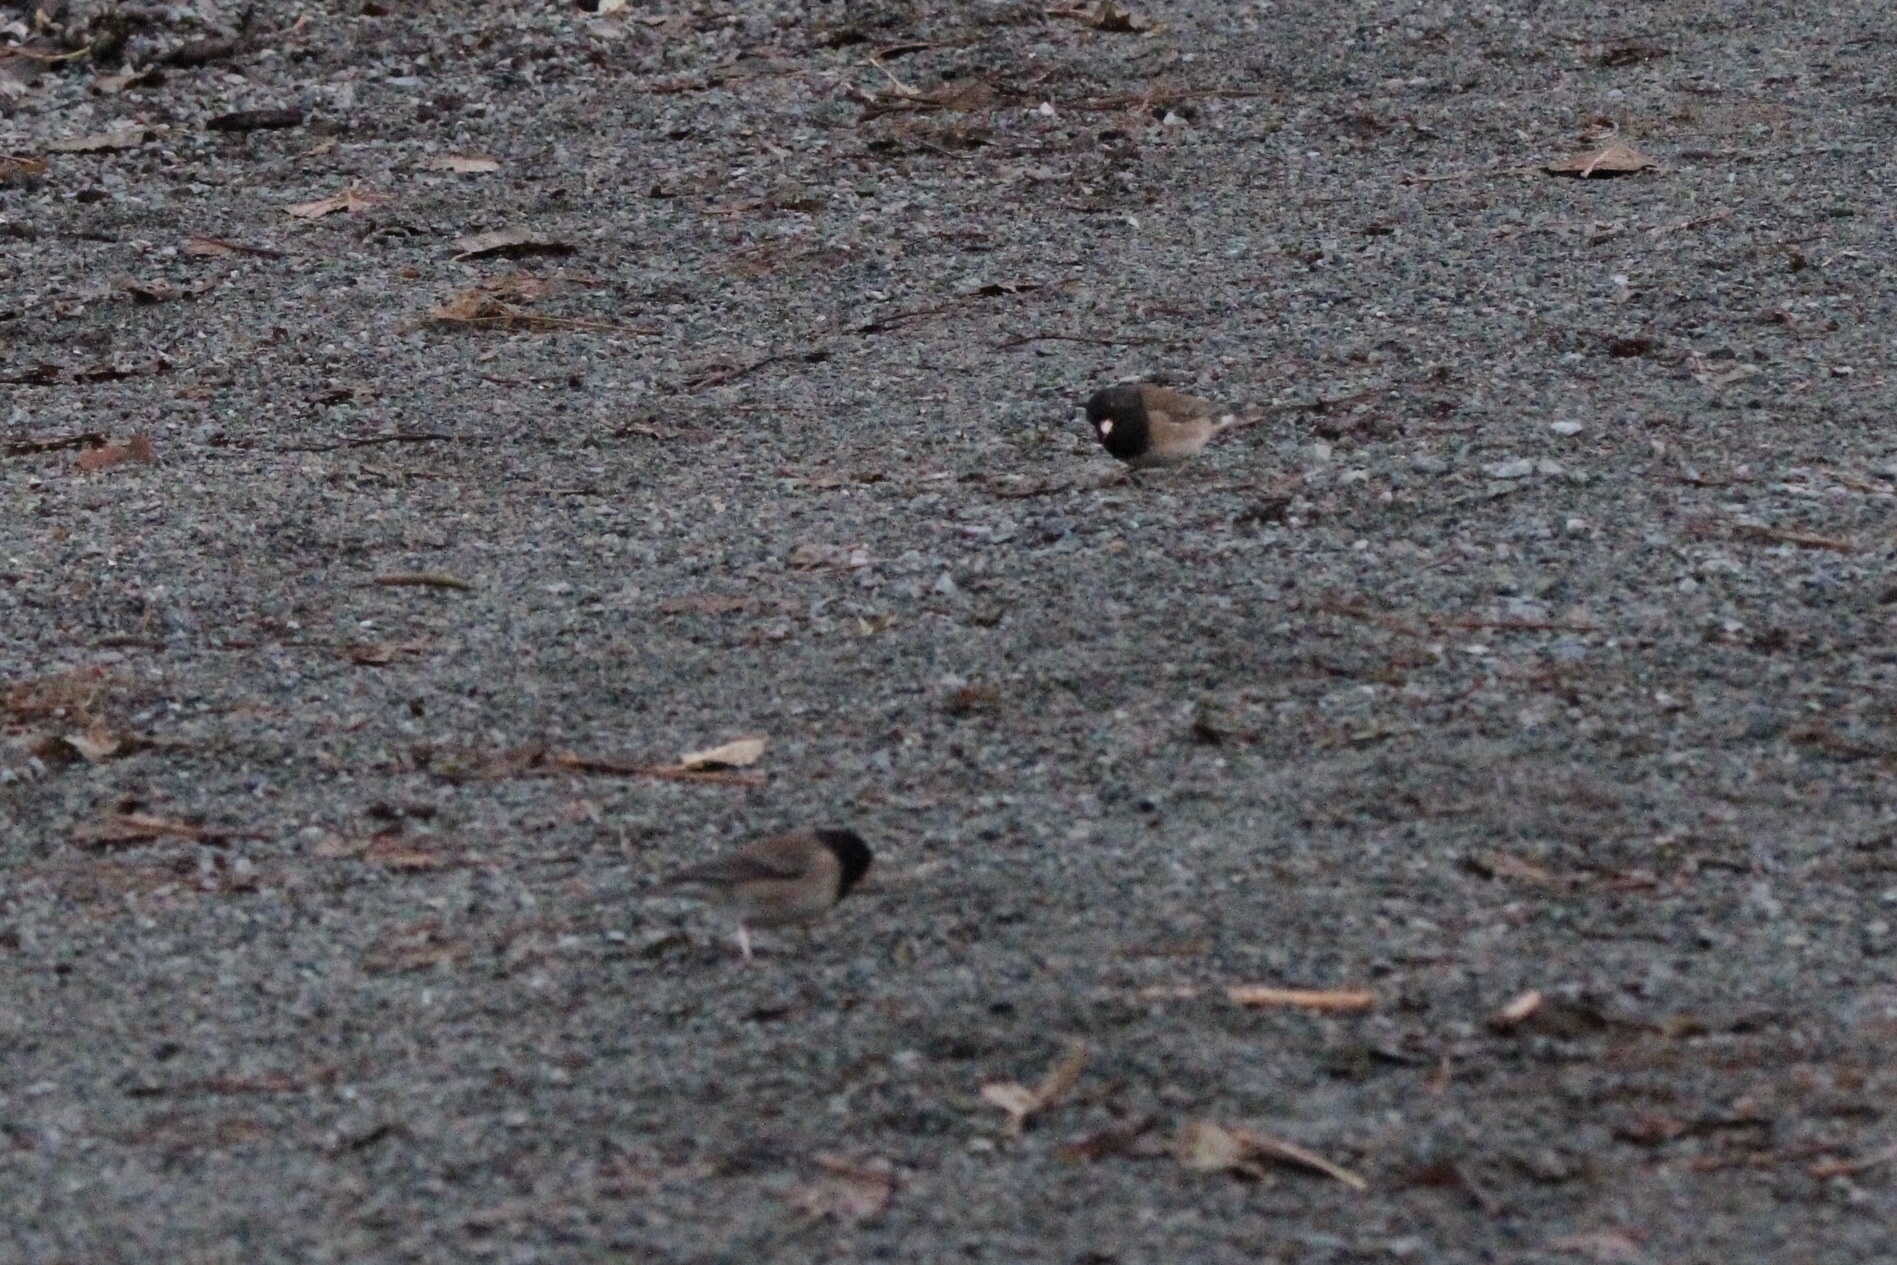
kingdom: Animalia
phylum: Chordata
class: Aves
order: Passeriformes
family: Passerellidae
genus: Junco
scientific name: Junco hyemalis
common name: Dark-eyed junco
